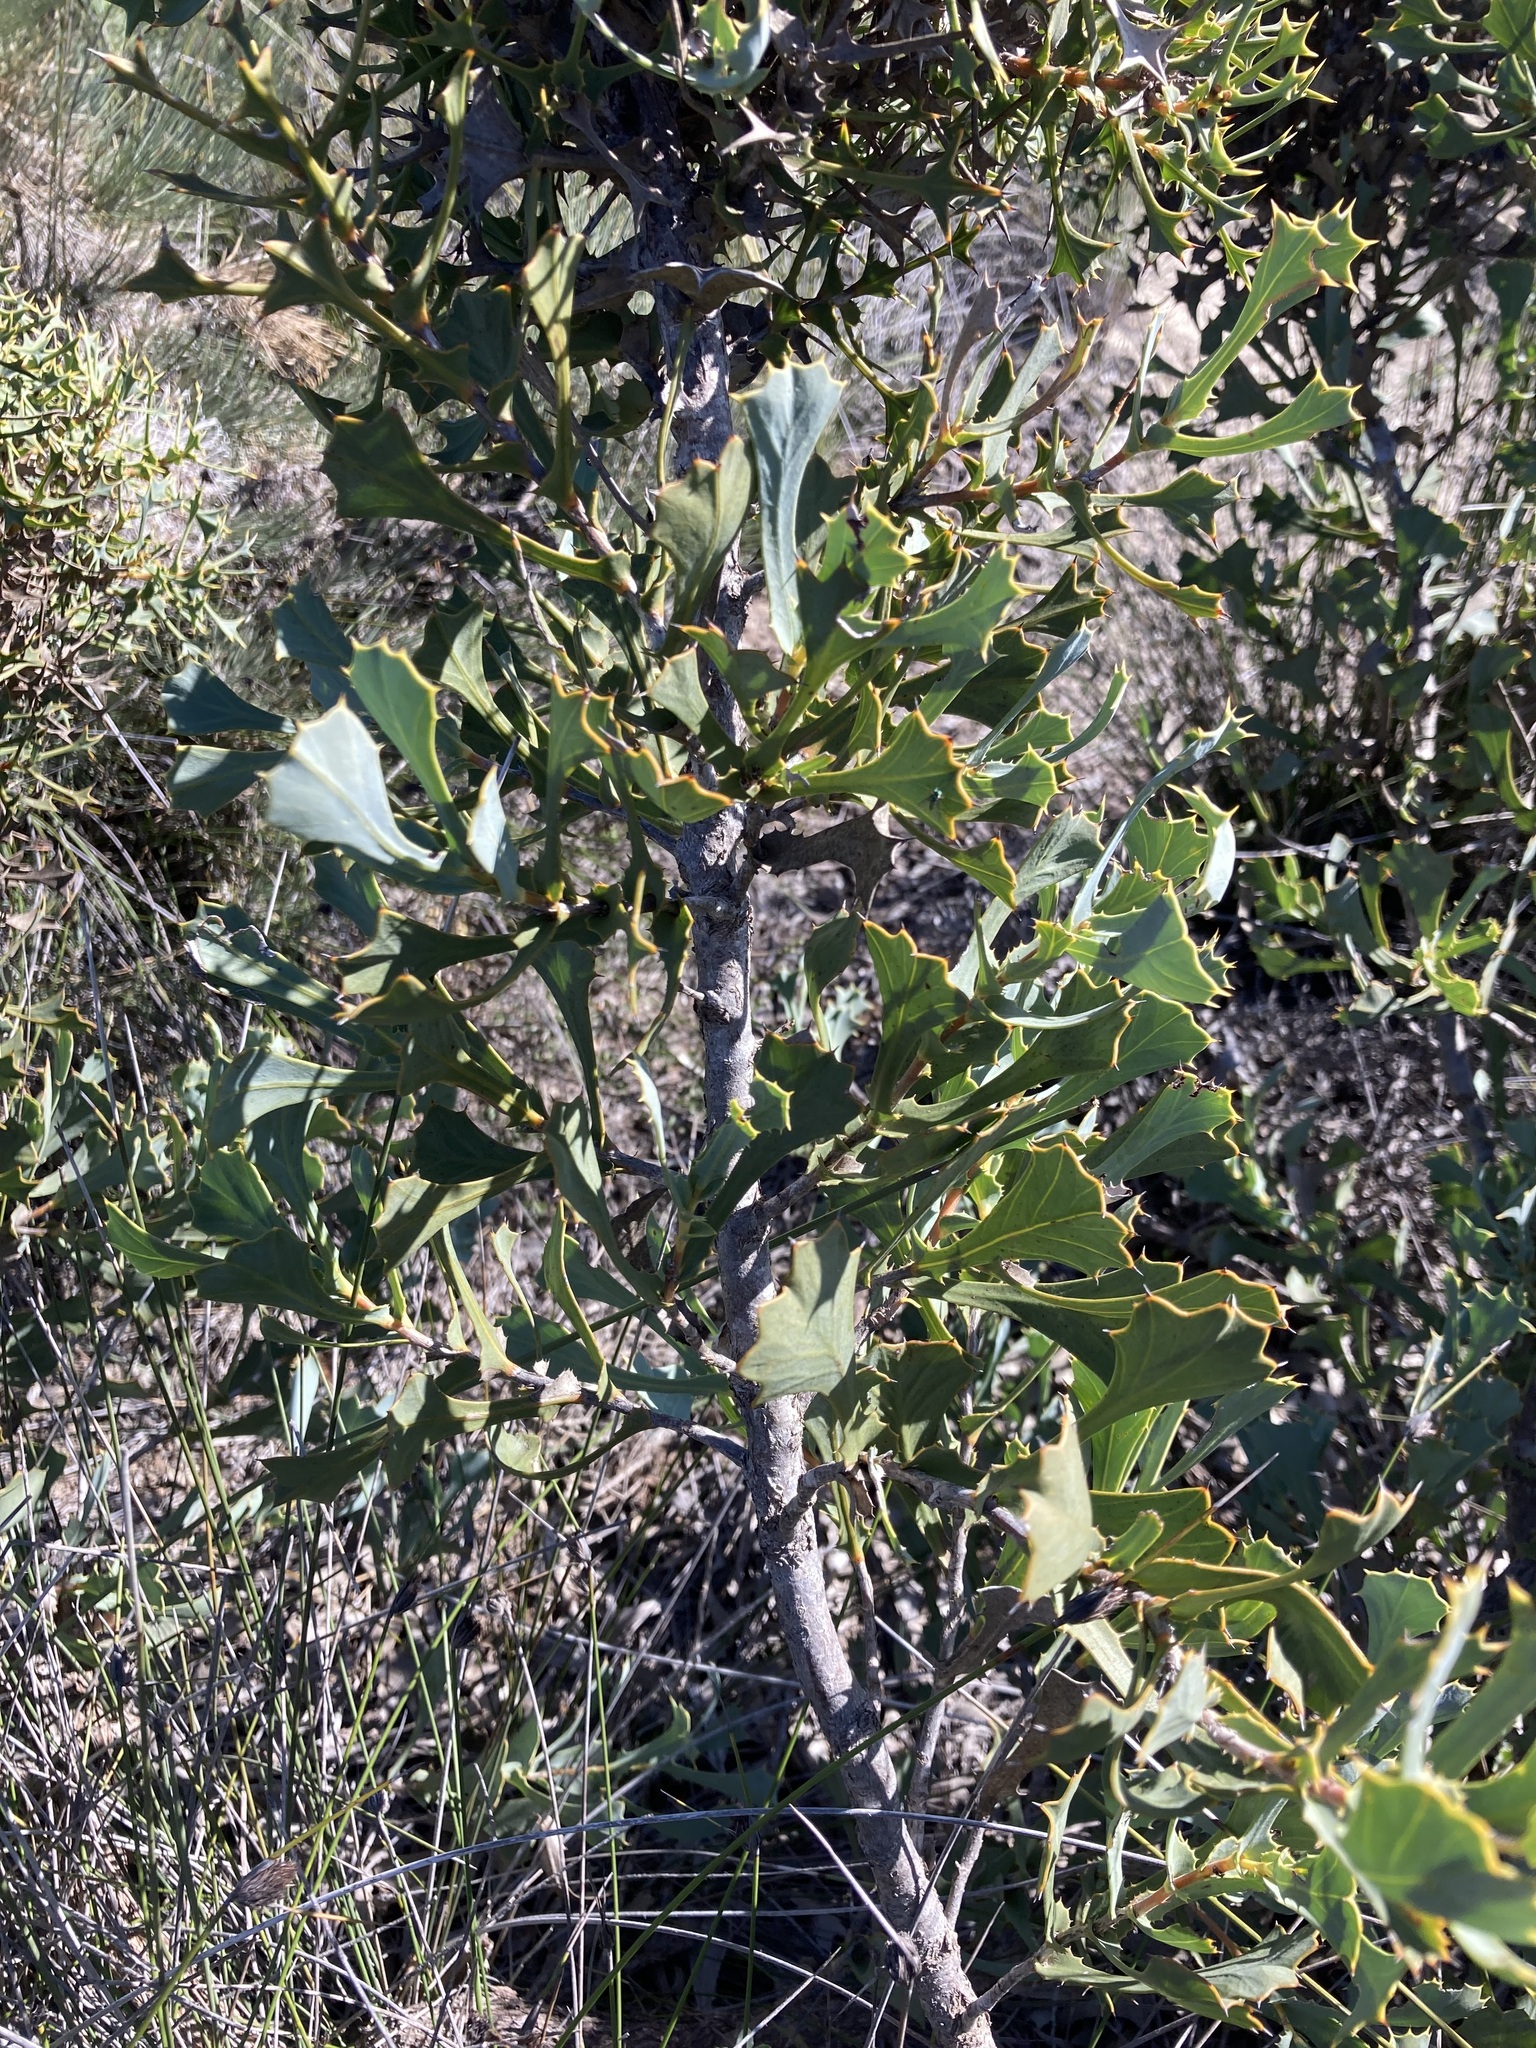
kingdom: Plantae
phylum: Tracheophyta
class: Magnoliopsida
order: Proteales
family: Proteaceae
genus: Hakea
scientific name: Hakea auriculata
